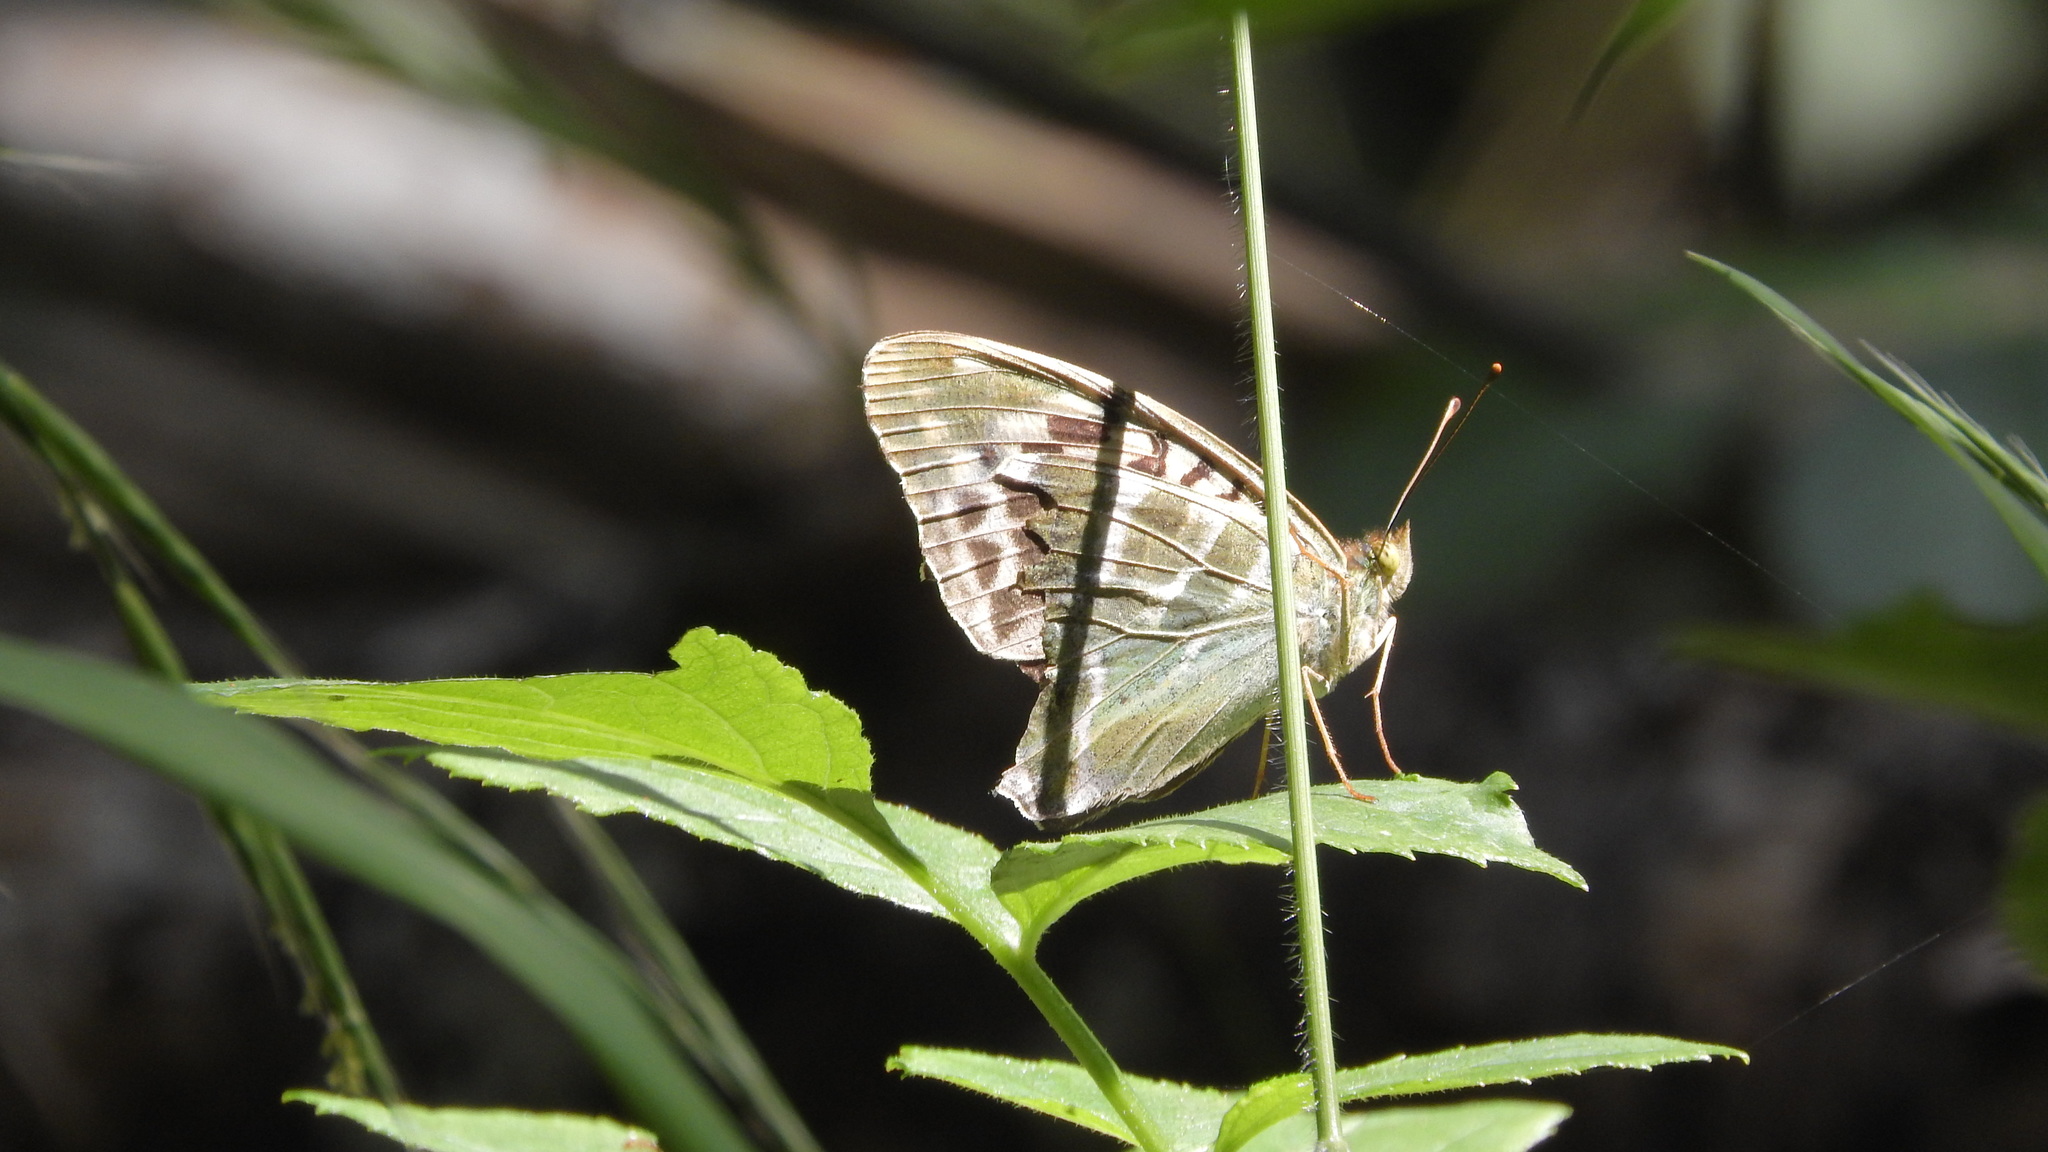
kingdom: Animalia
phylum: Arthropoda
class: Insecta
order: Lepidoptera
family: Nymphalidae
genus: Argynnis
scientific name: Argynnis paphia
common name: Silver-washed fritillary
